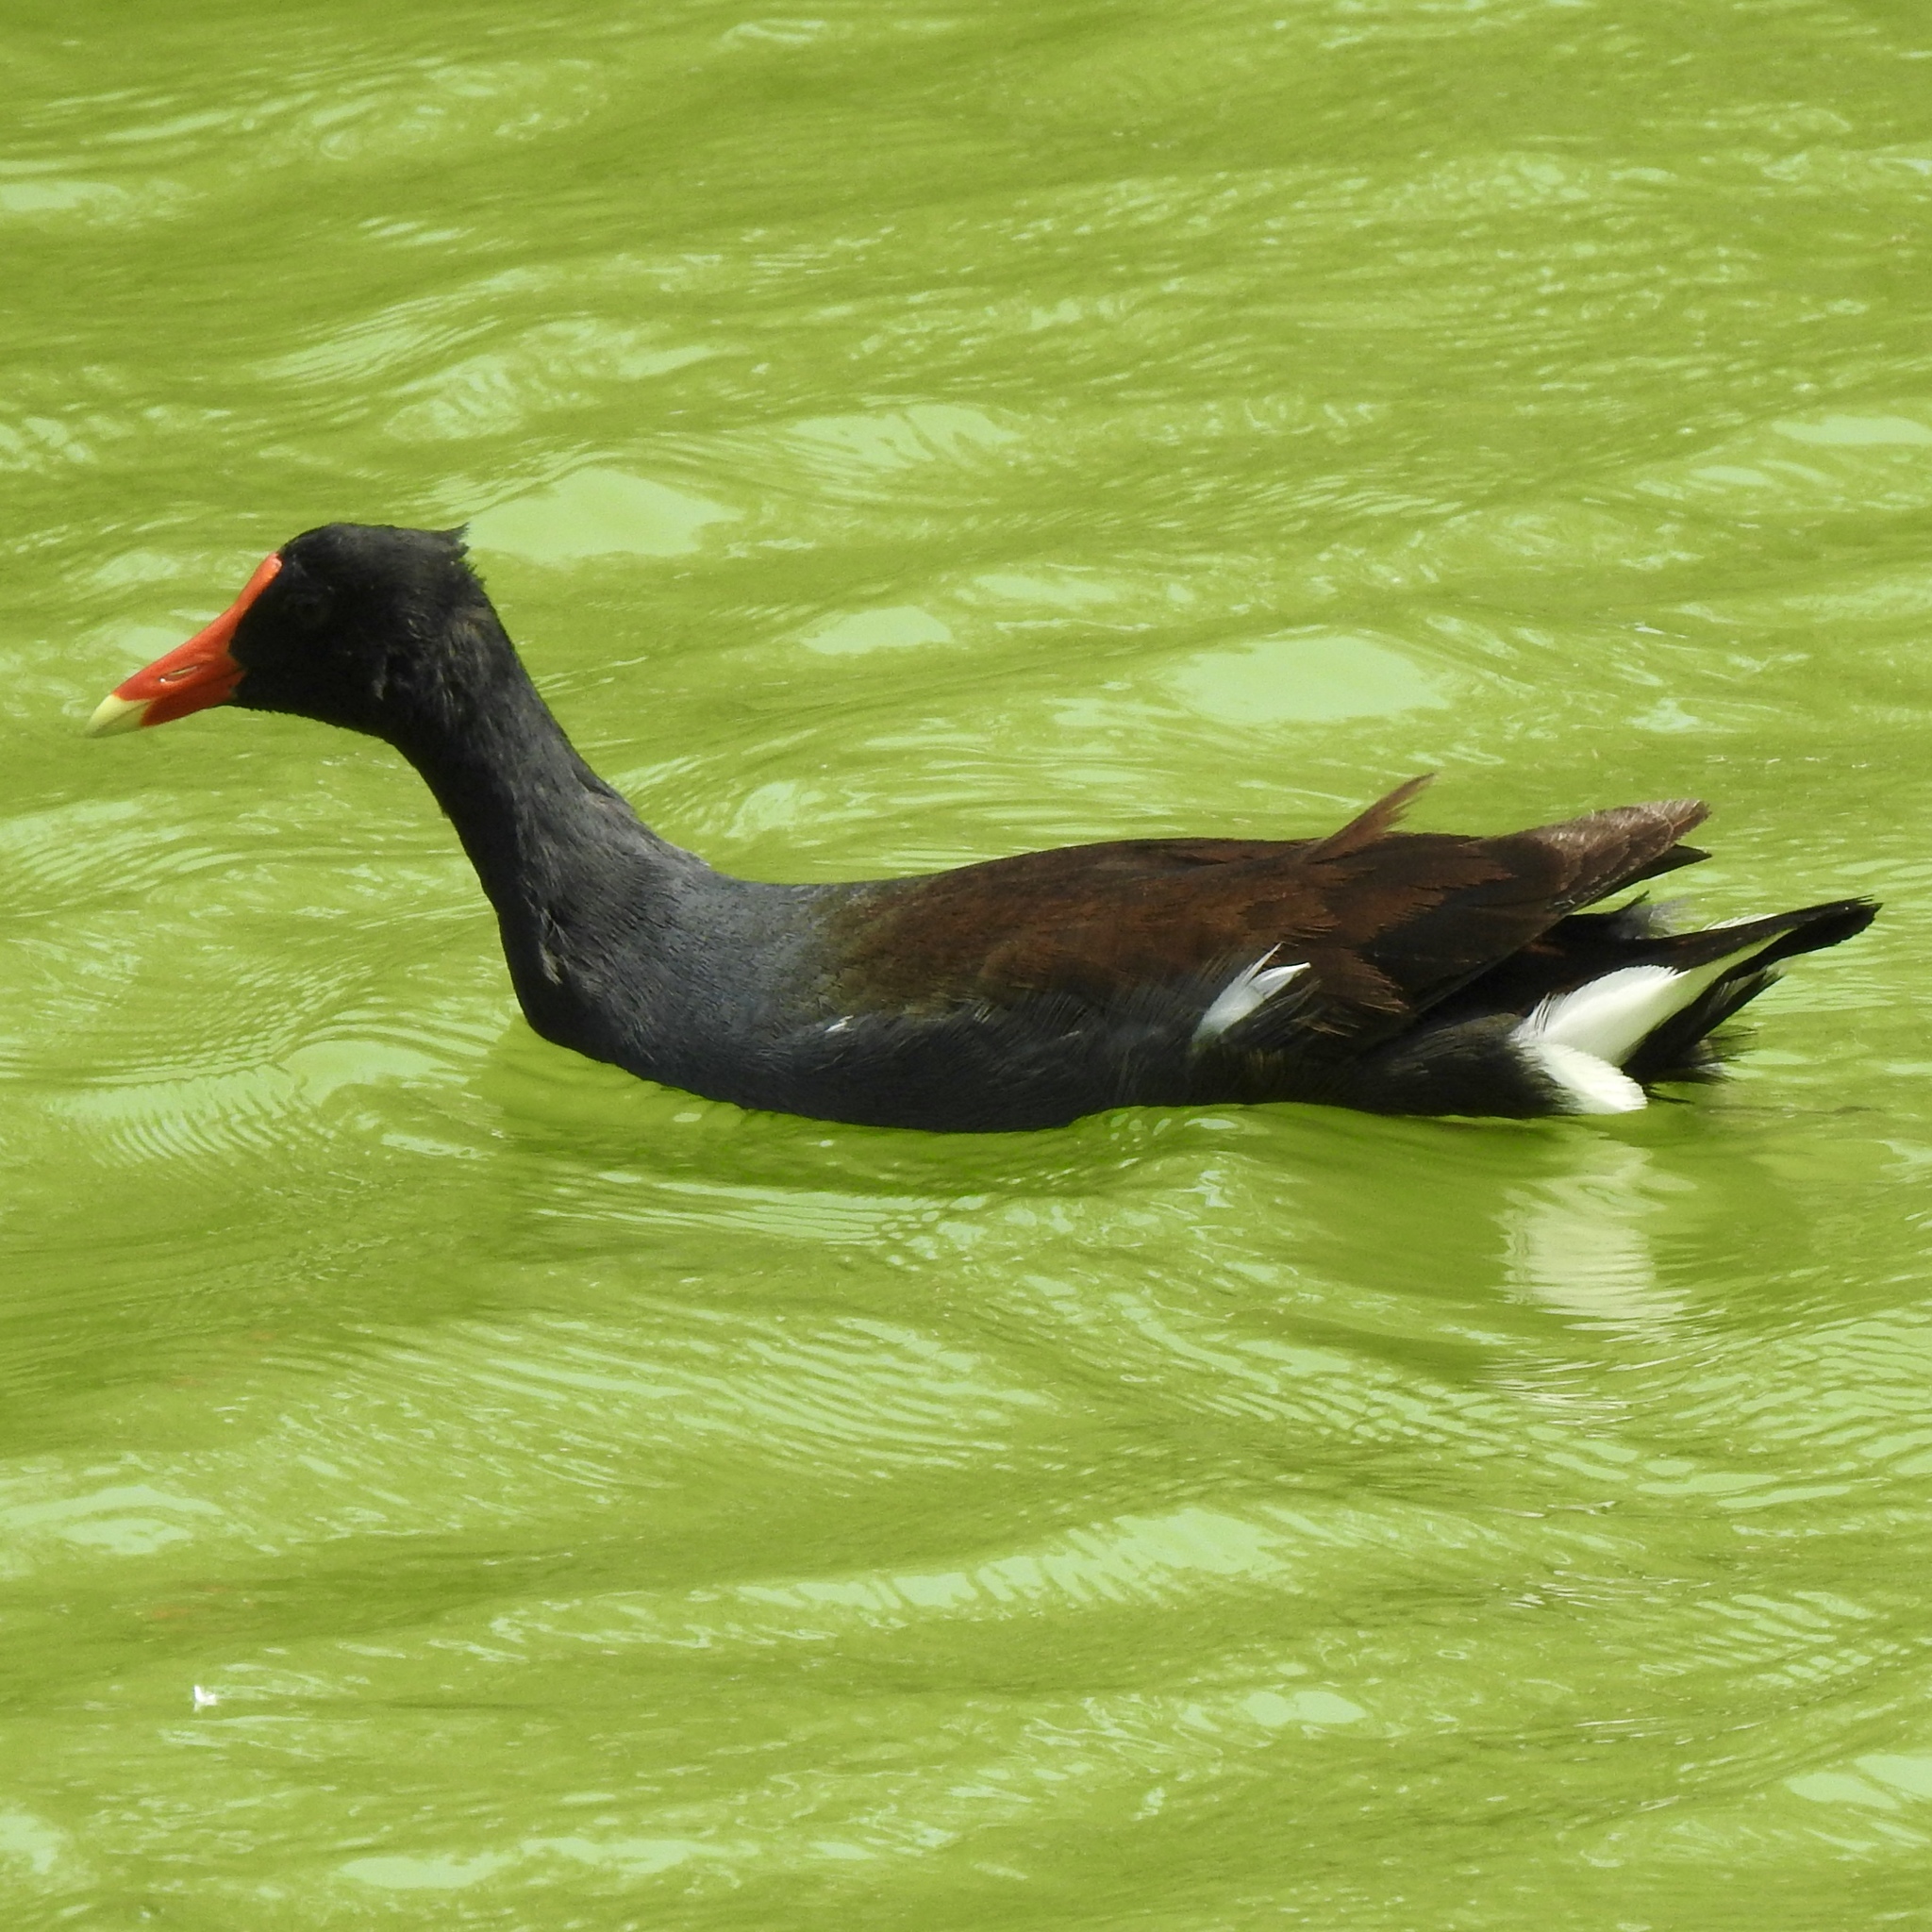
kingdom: Animalia
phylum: Chordata
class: Aves
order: Gruiformes
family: Rallidae
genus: Gallinula
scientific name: Gallinula chloropus
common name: Common moorhen
